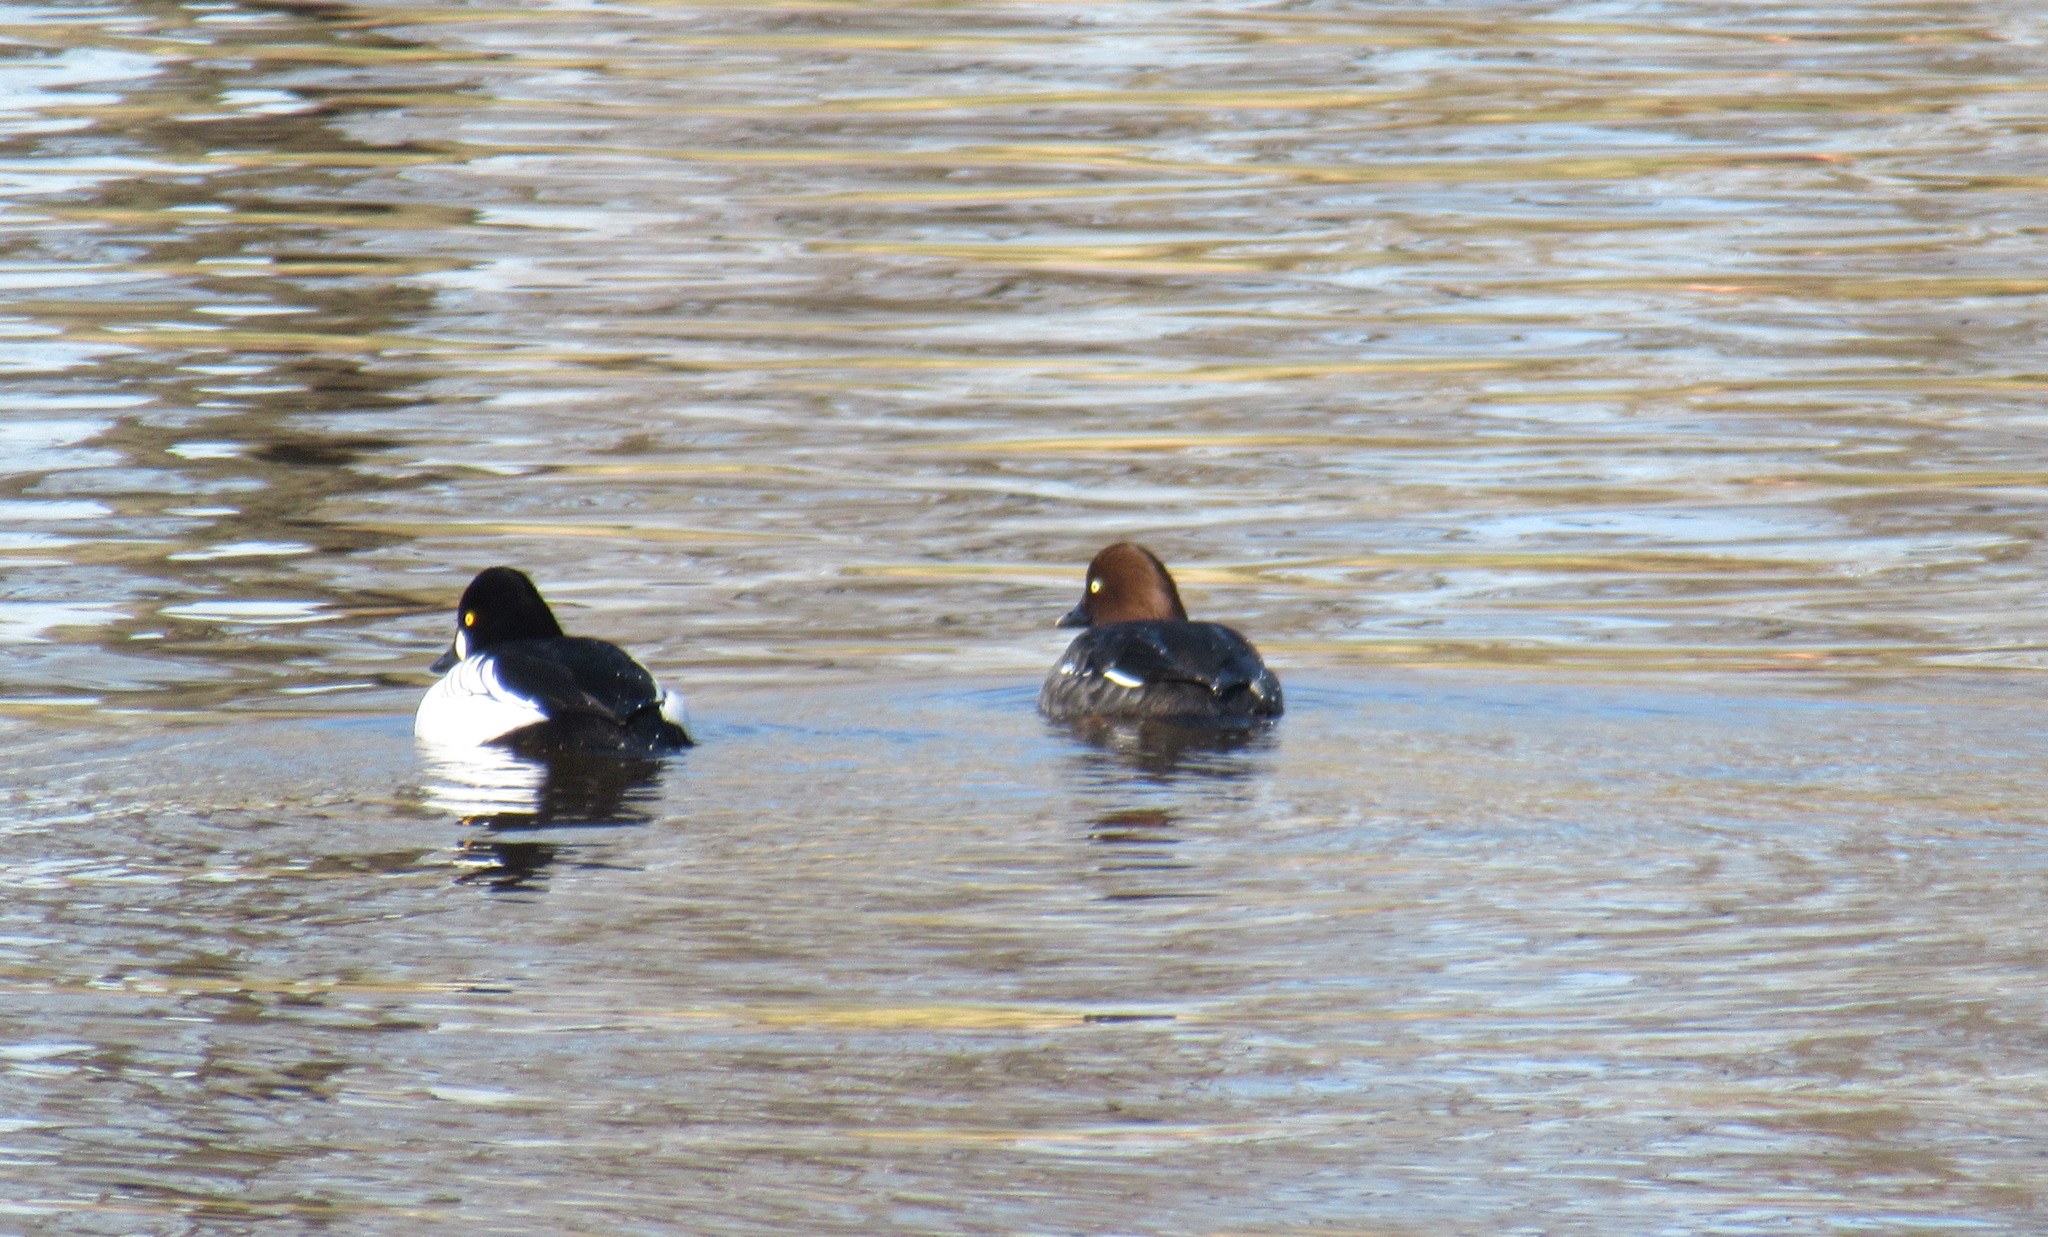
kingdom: Animalia
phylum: Chordata
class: Aves
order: Anseriformes
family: Anatidae
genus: Bucephala
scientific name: Bucephala clangula
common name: Common goldeneye
